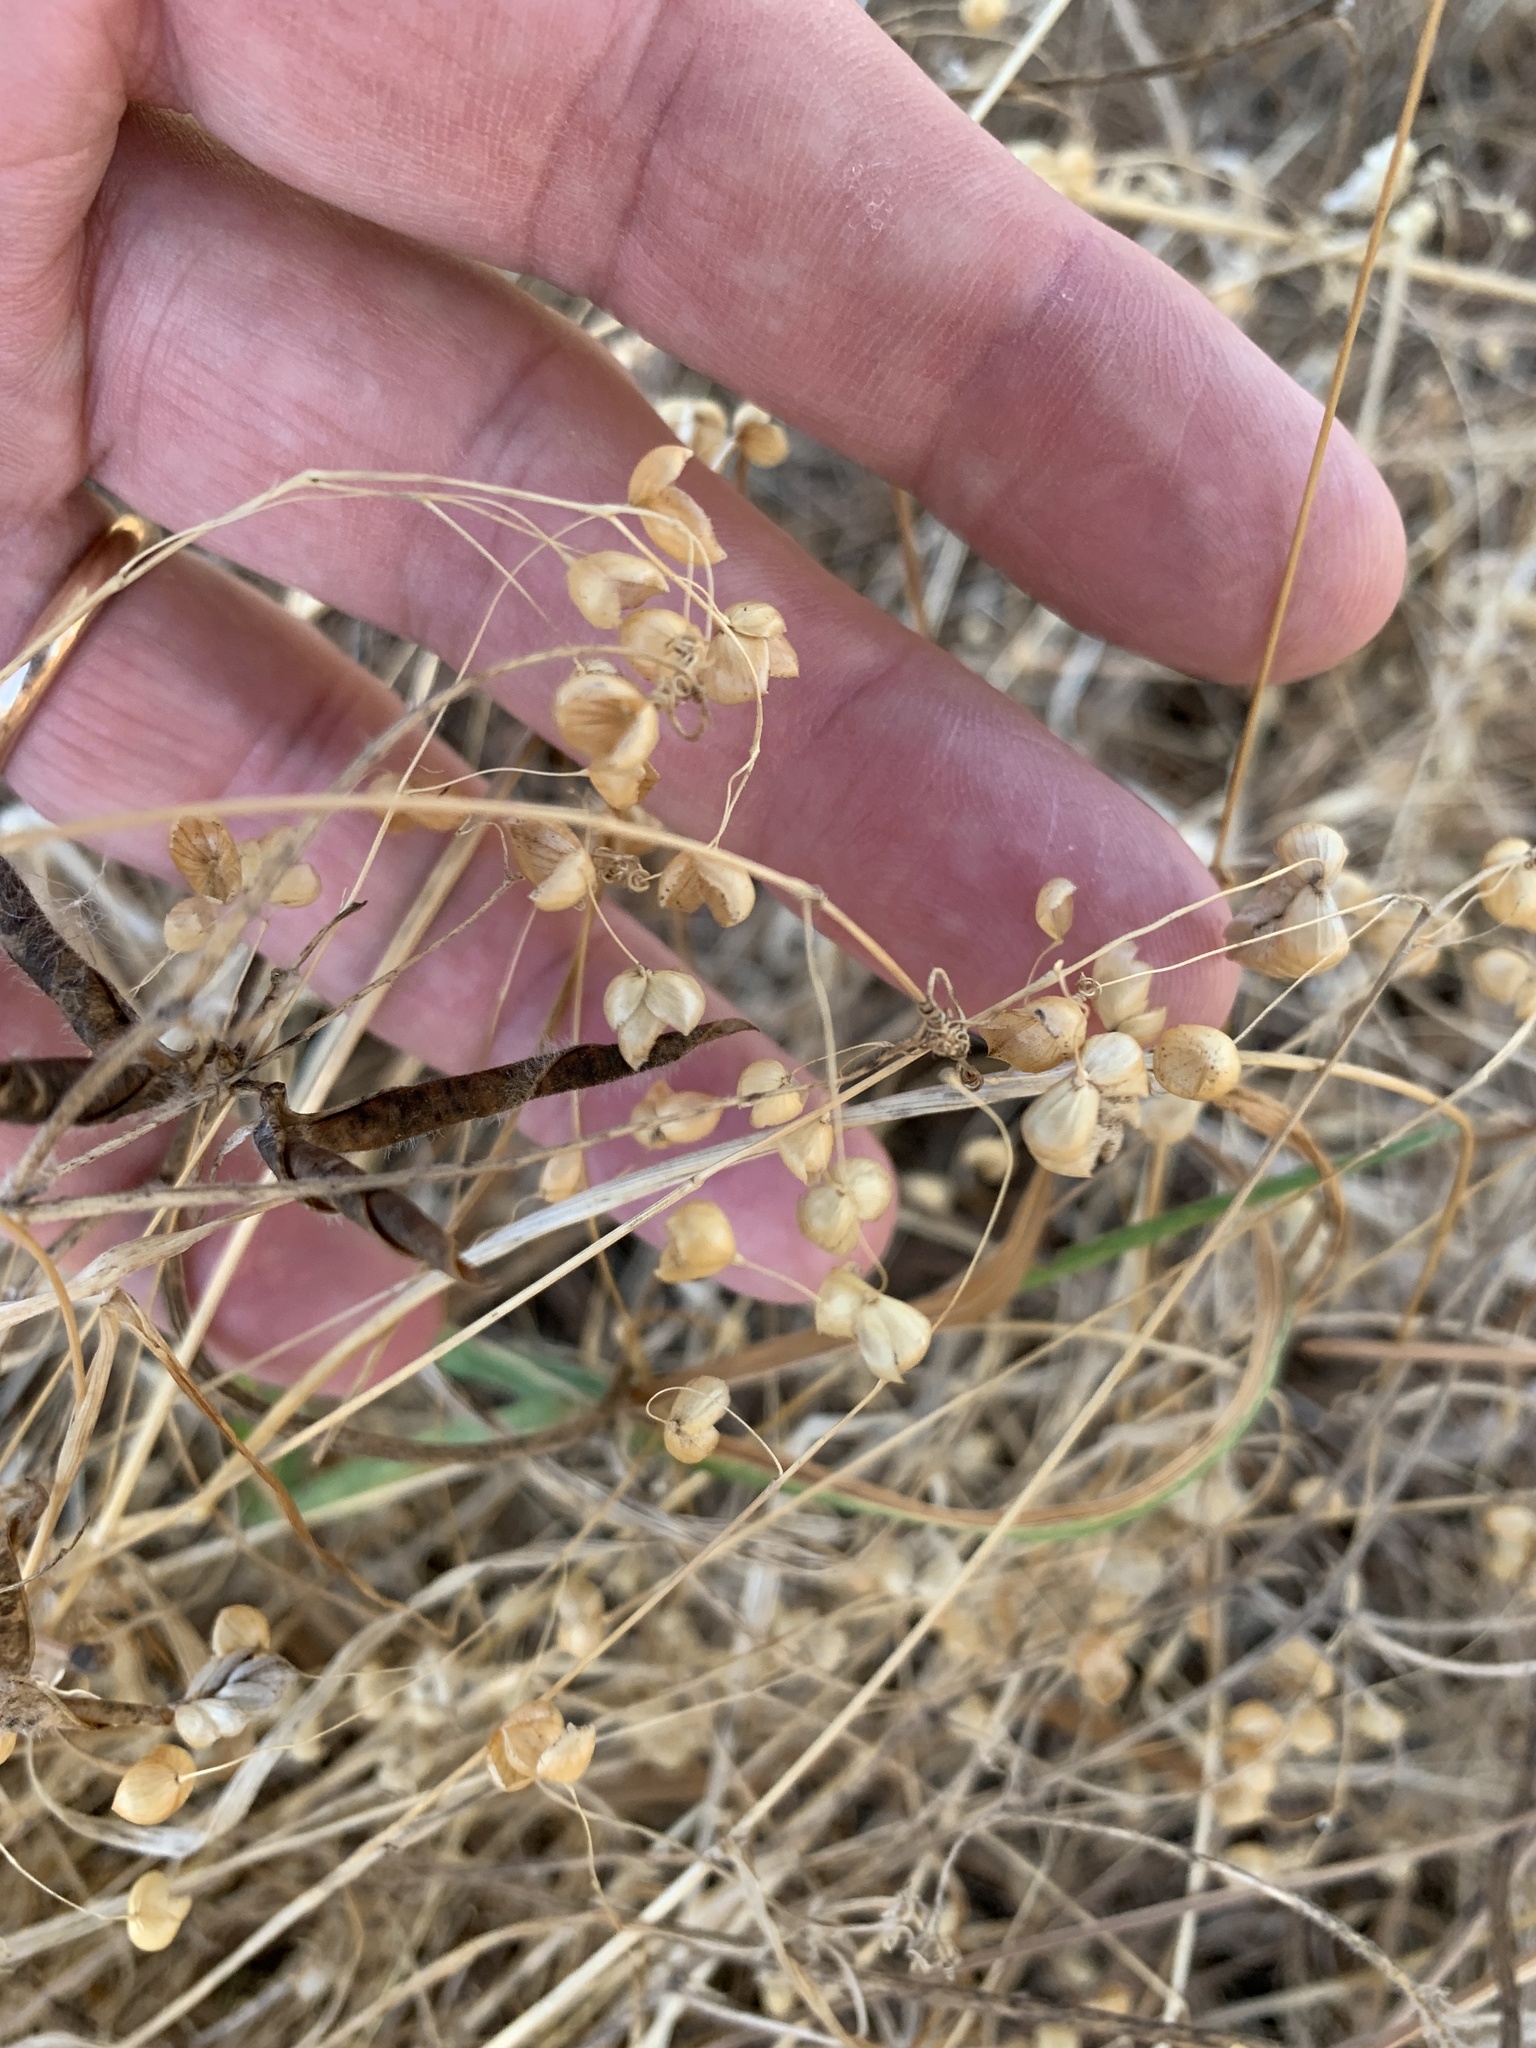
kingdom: Plantae
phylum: Tracheophyta
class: Liliopsida
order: Poales
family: Poaceae
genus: Briza
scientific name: Briza maxima
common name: Big quakinggrass
